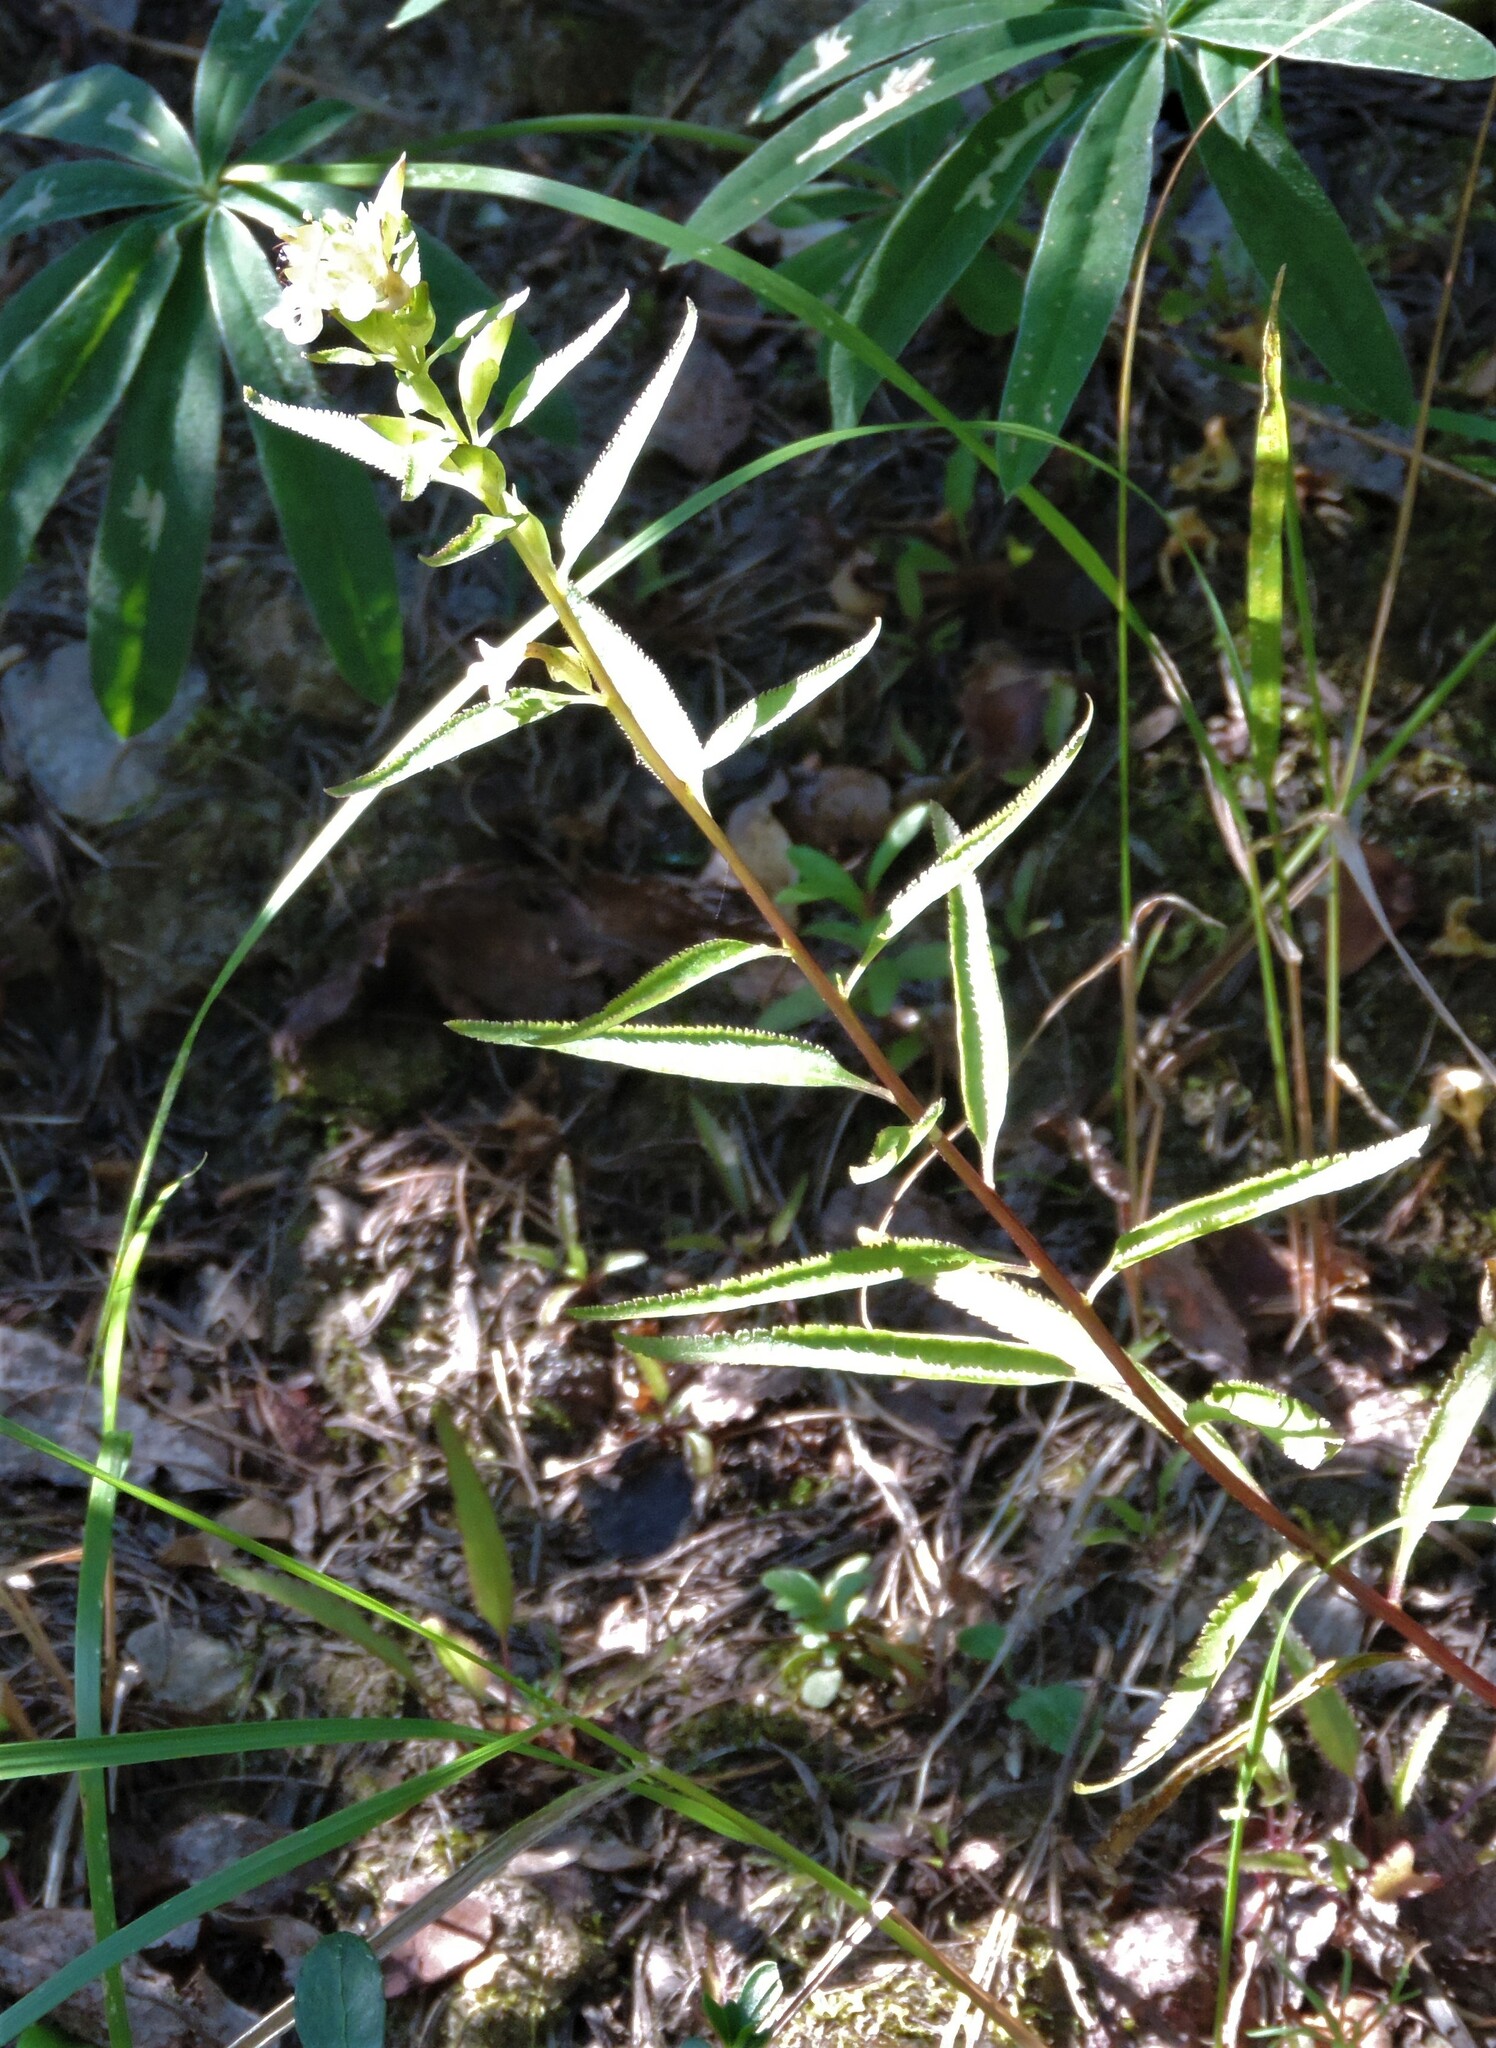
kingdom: Plantae
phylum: Tracheophyta
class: Magnoliopsida
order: Lamiales
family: Orobanchaceae
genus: Pedicularis
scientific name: Pedicularis racemosa
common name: Leafy lousewort
